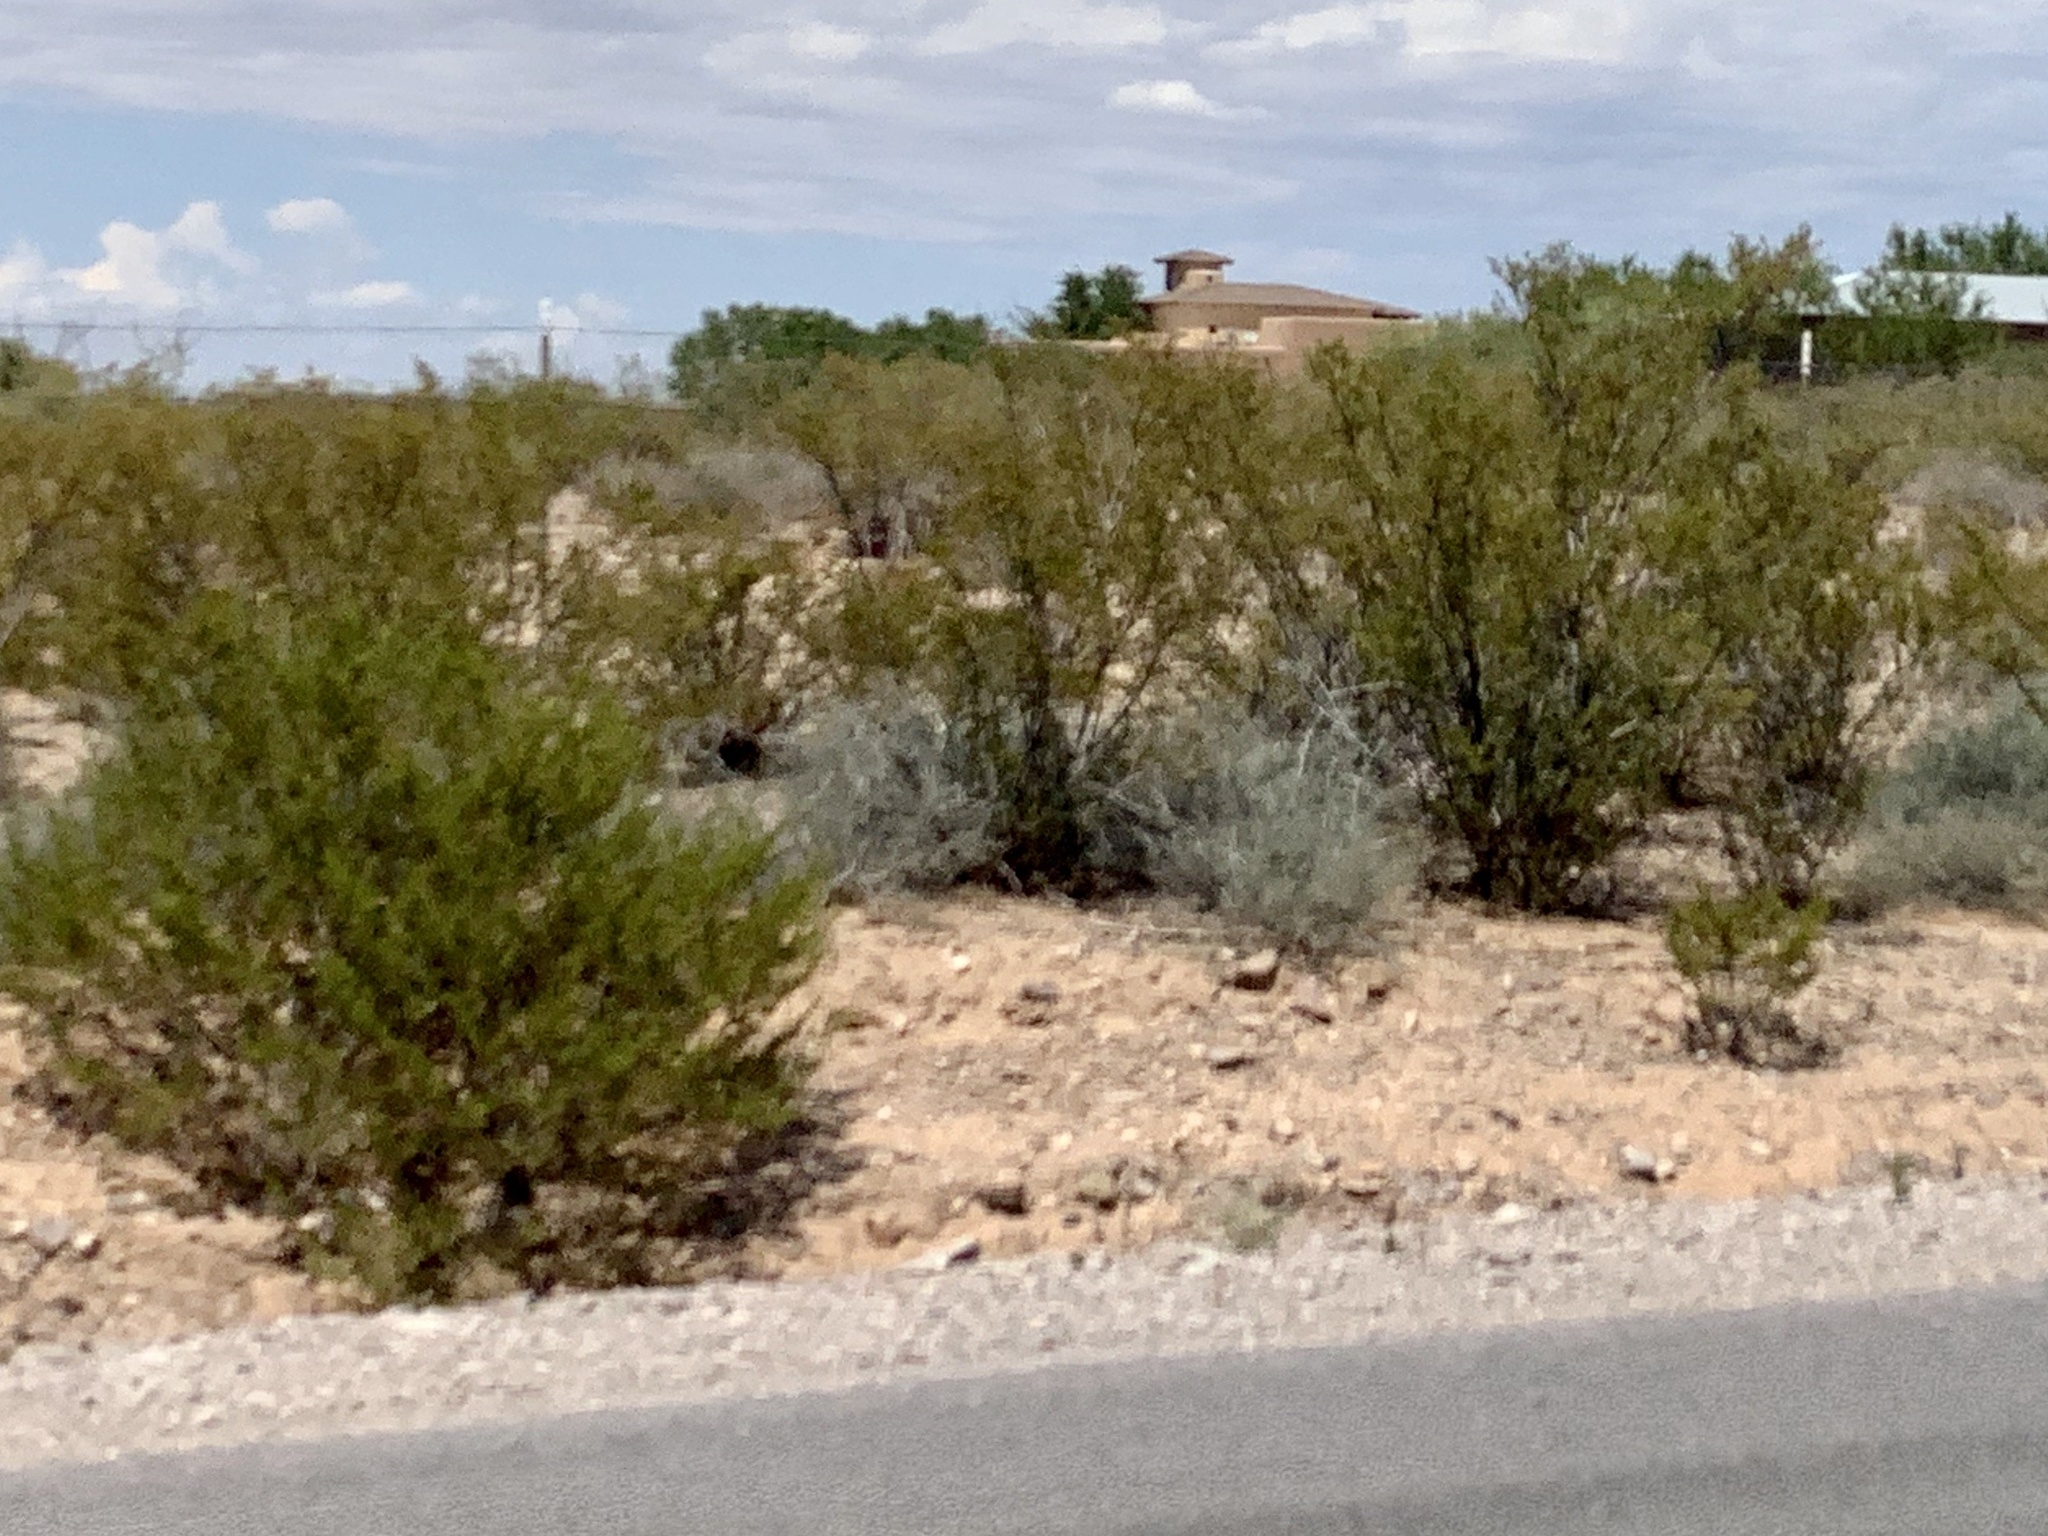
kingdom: Plantae
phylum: Tracheophyta
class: Magnoliopsida
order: Zygophyllales
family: Zygophyllaceae
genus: Larrea
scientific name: Larrea tridentata
